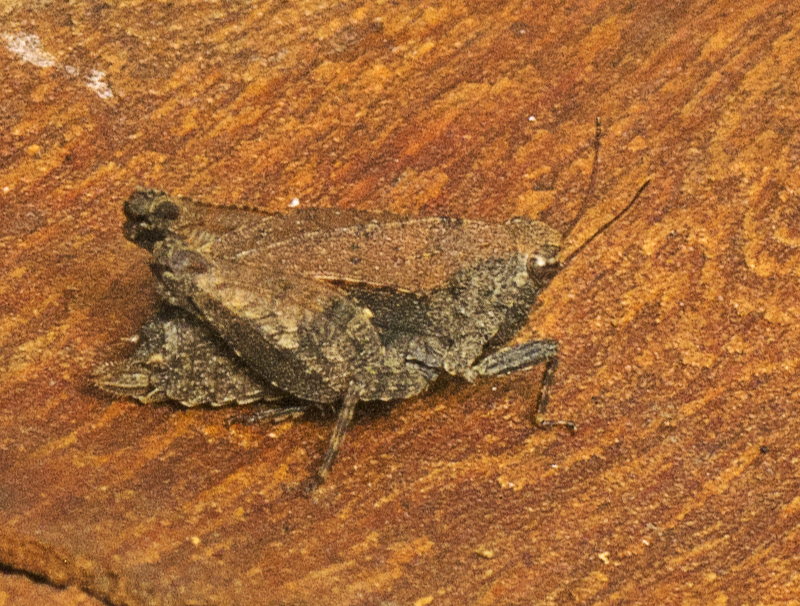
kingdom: Animalia
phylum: Arthropoda
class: Insecta
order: Orthoptera
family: Tetrigidae
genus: Tetrix
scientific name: Tetrix irrupta
